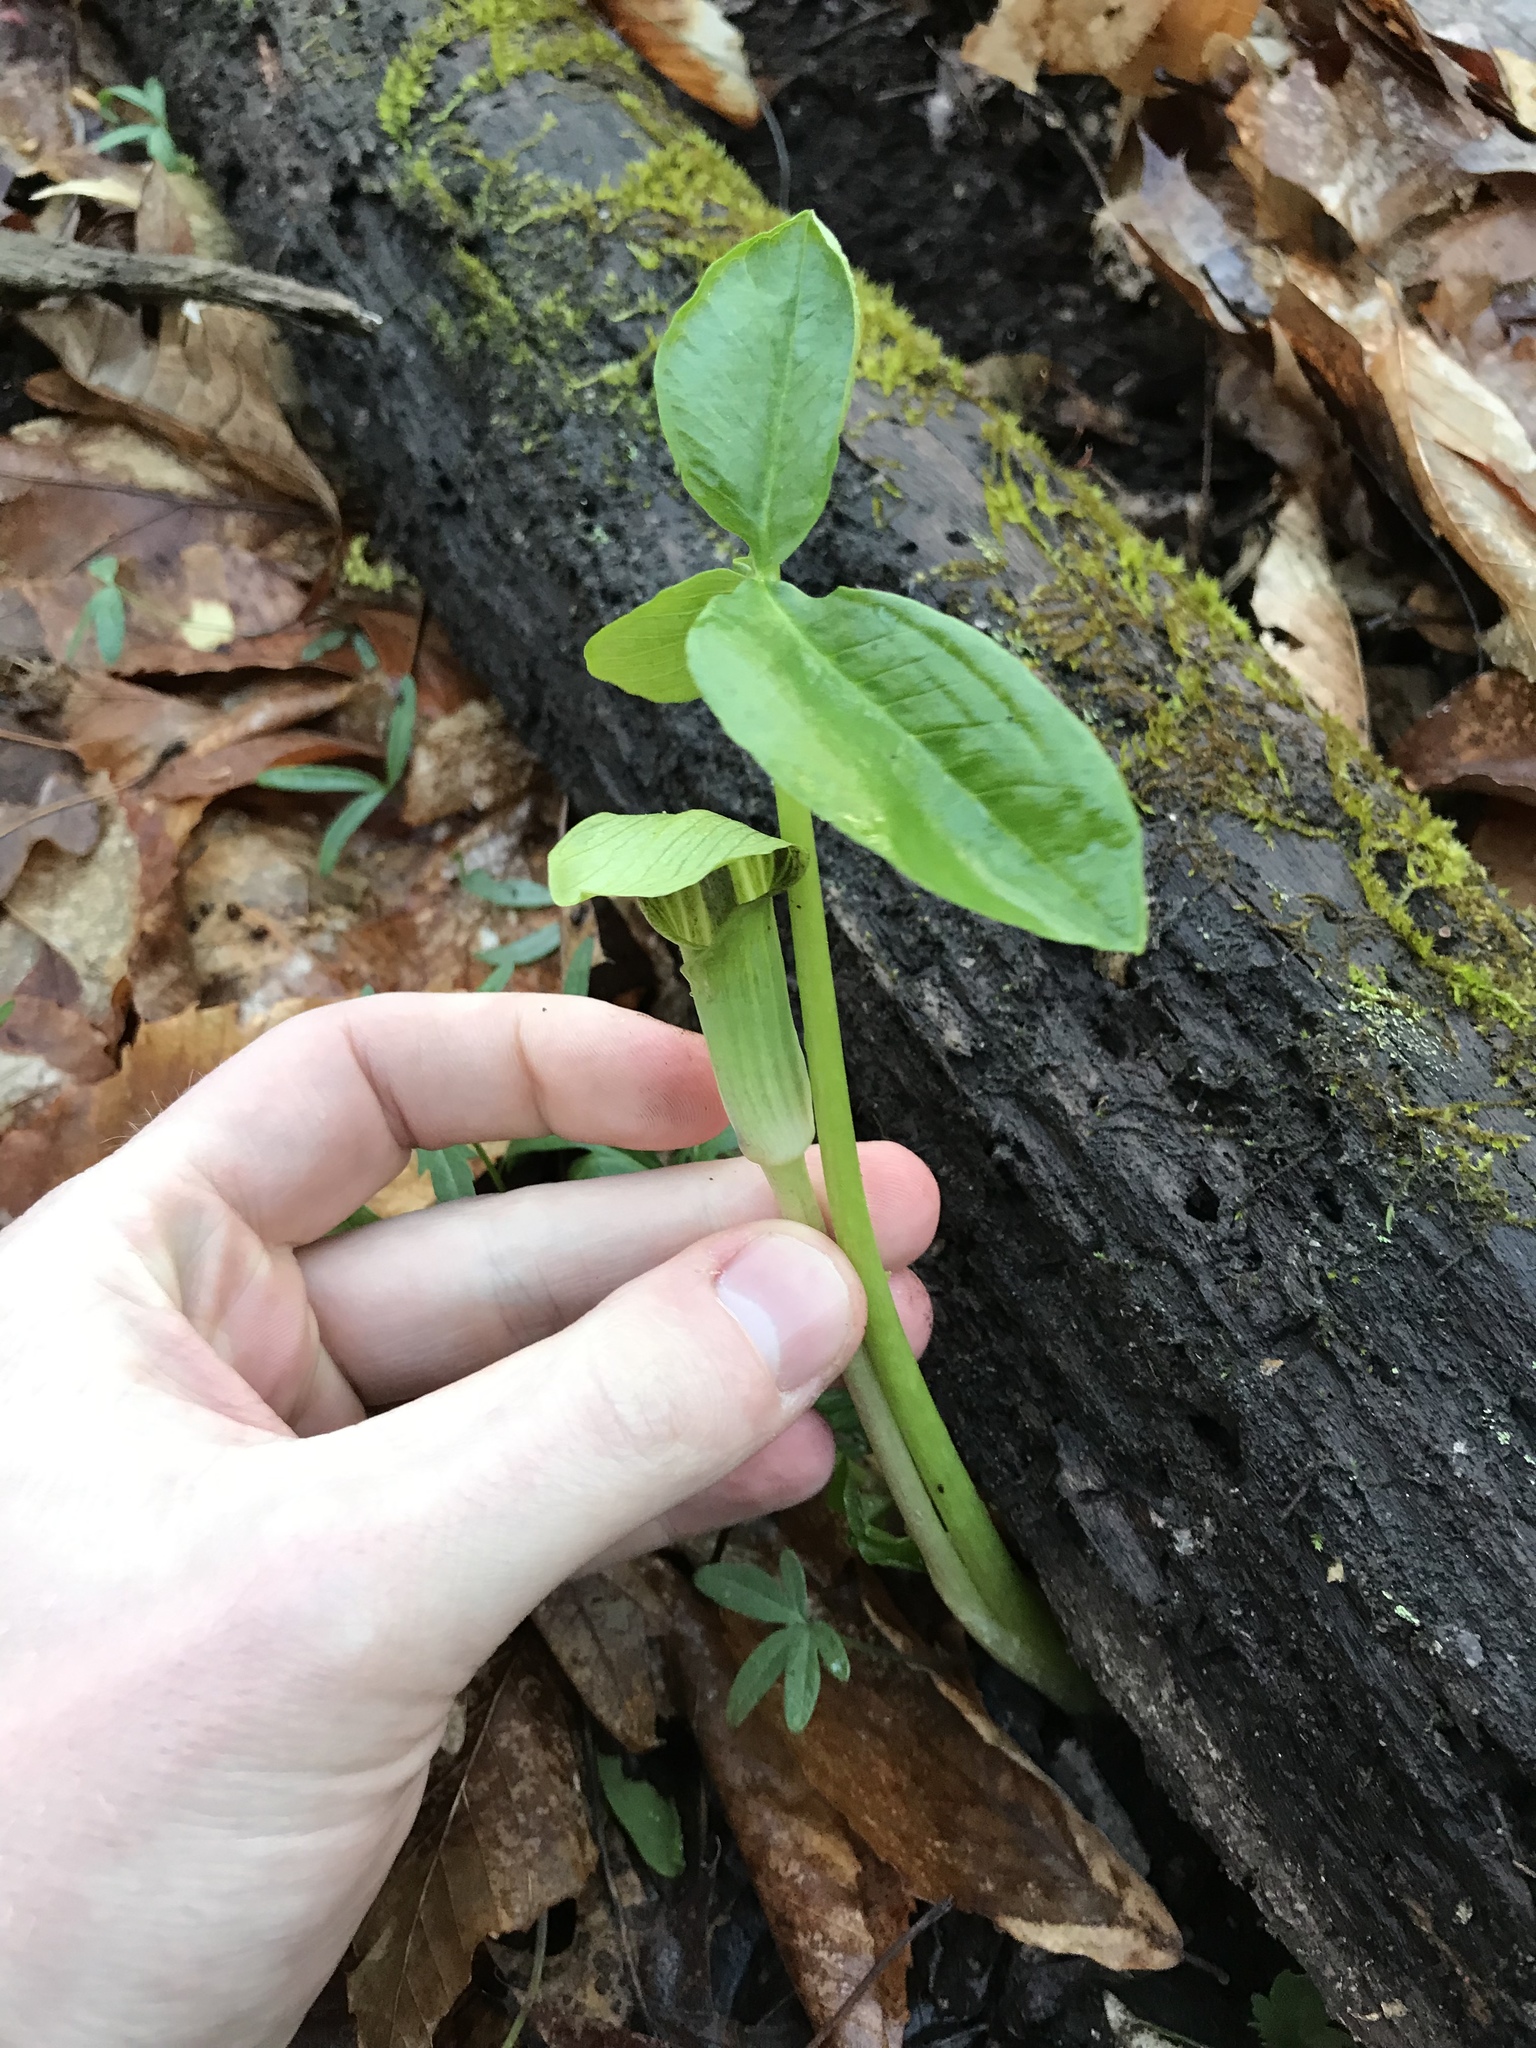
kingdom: Plantae
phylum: Tracheophyta
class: Liliopsida
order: Alismatales
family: Araceae
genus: Arisaema
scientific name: Arisaema triphyllum
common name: Jack-in-the-pulpit
